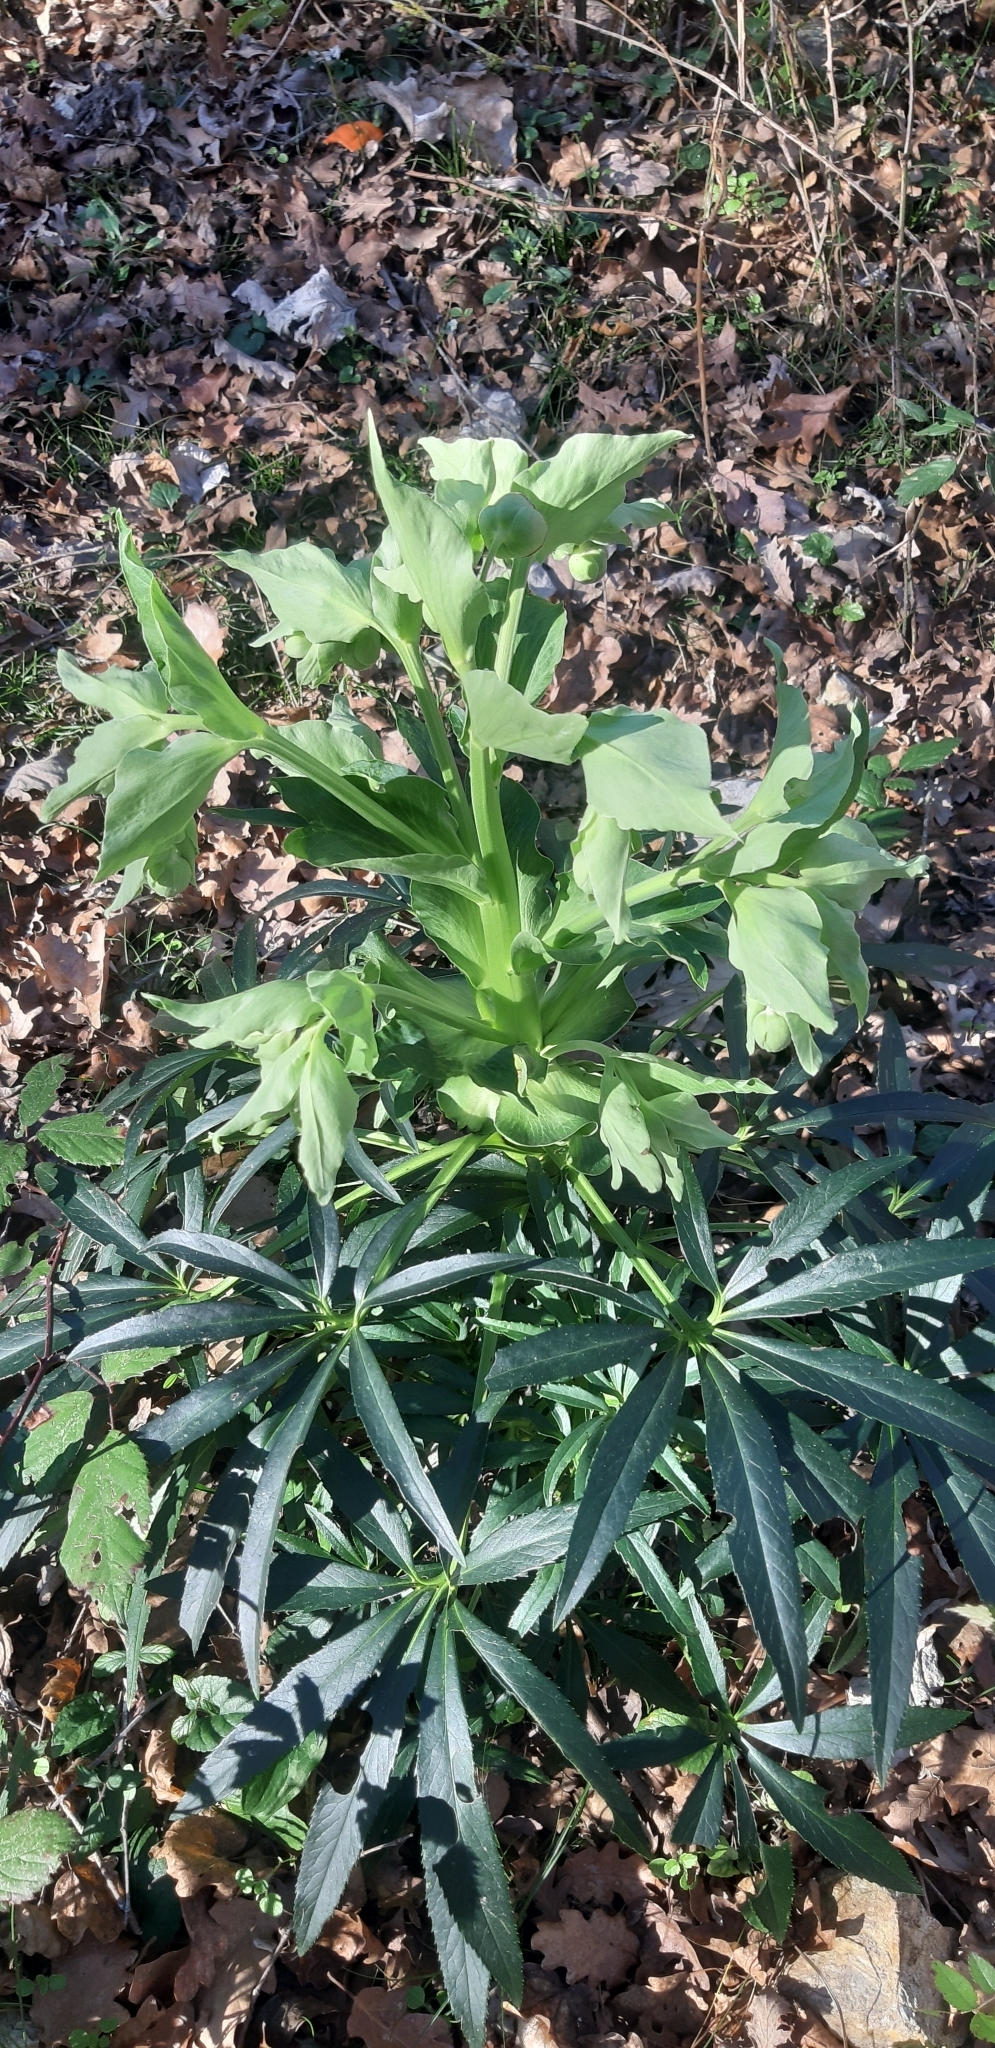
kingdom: Plantae
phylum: Tracheophyta
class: Magnoliopsida
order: Ranunculales
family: Ranunculaceae
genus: Helleborus
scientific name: Helleborus foetidus
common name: Stinking hellebore
